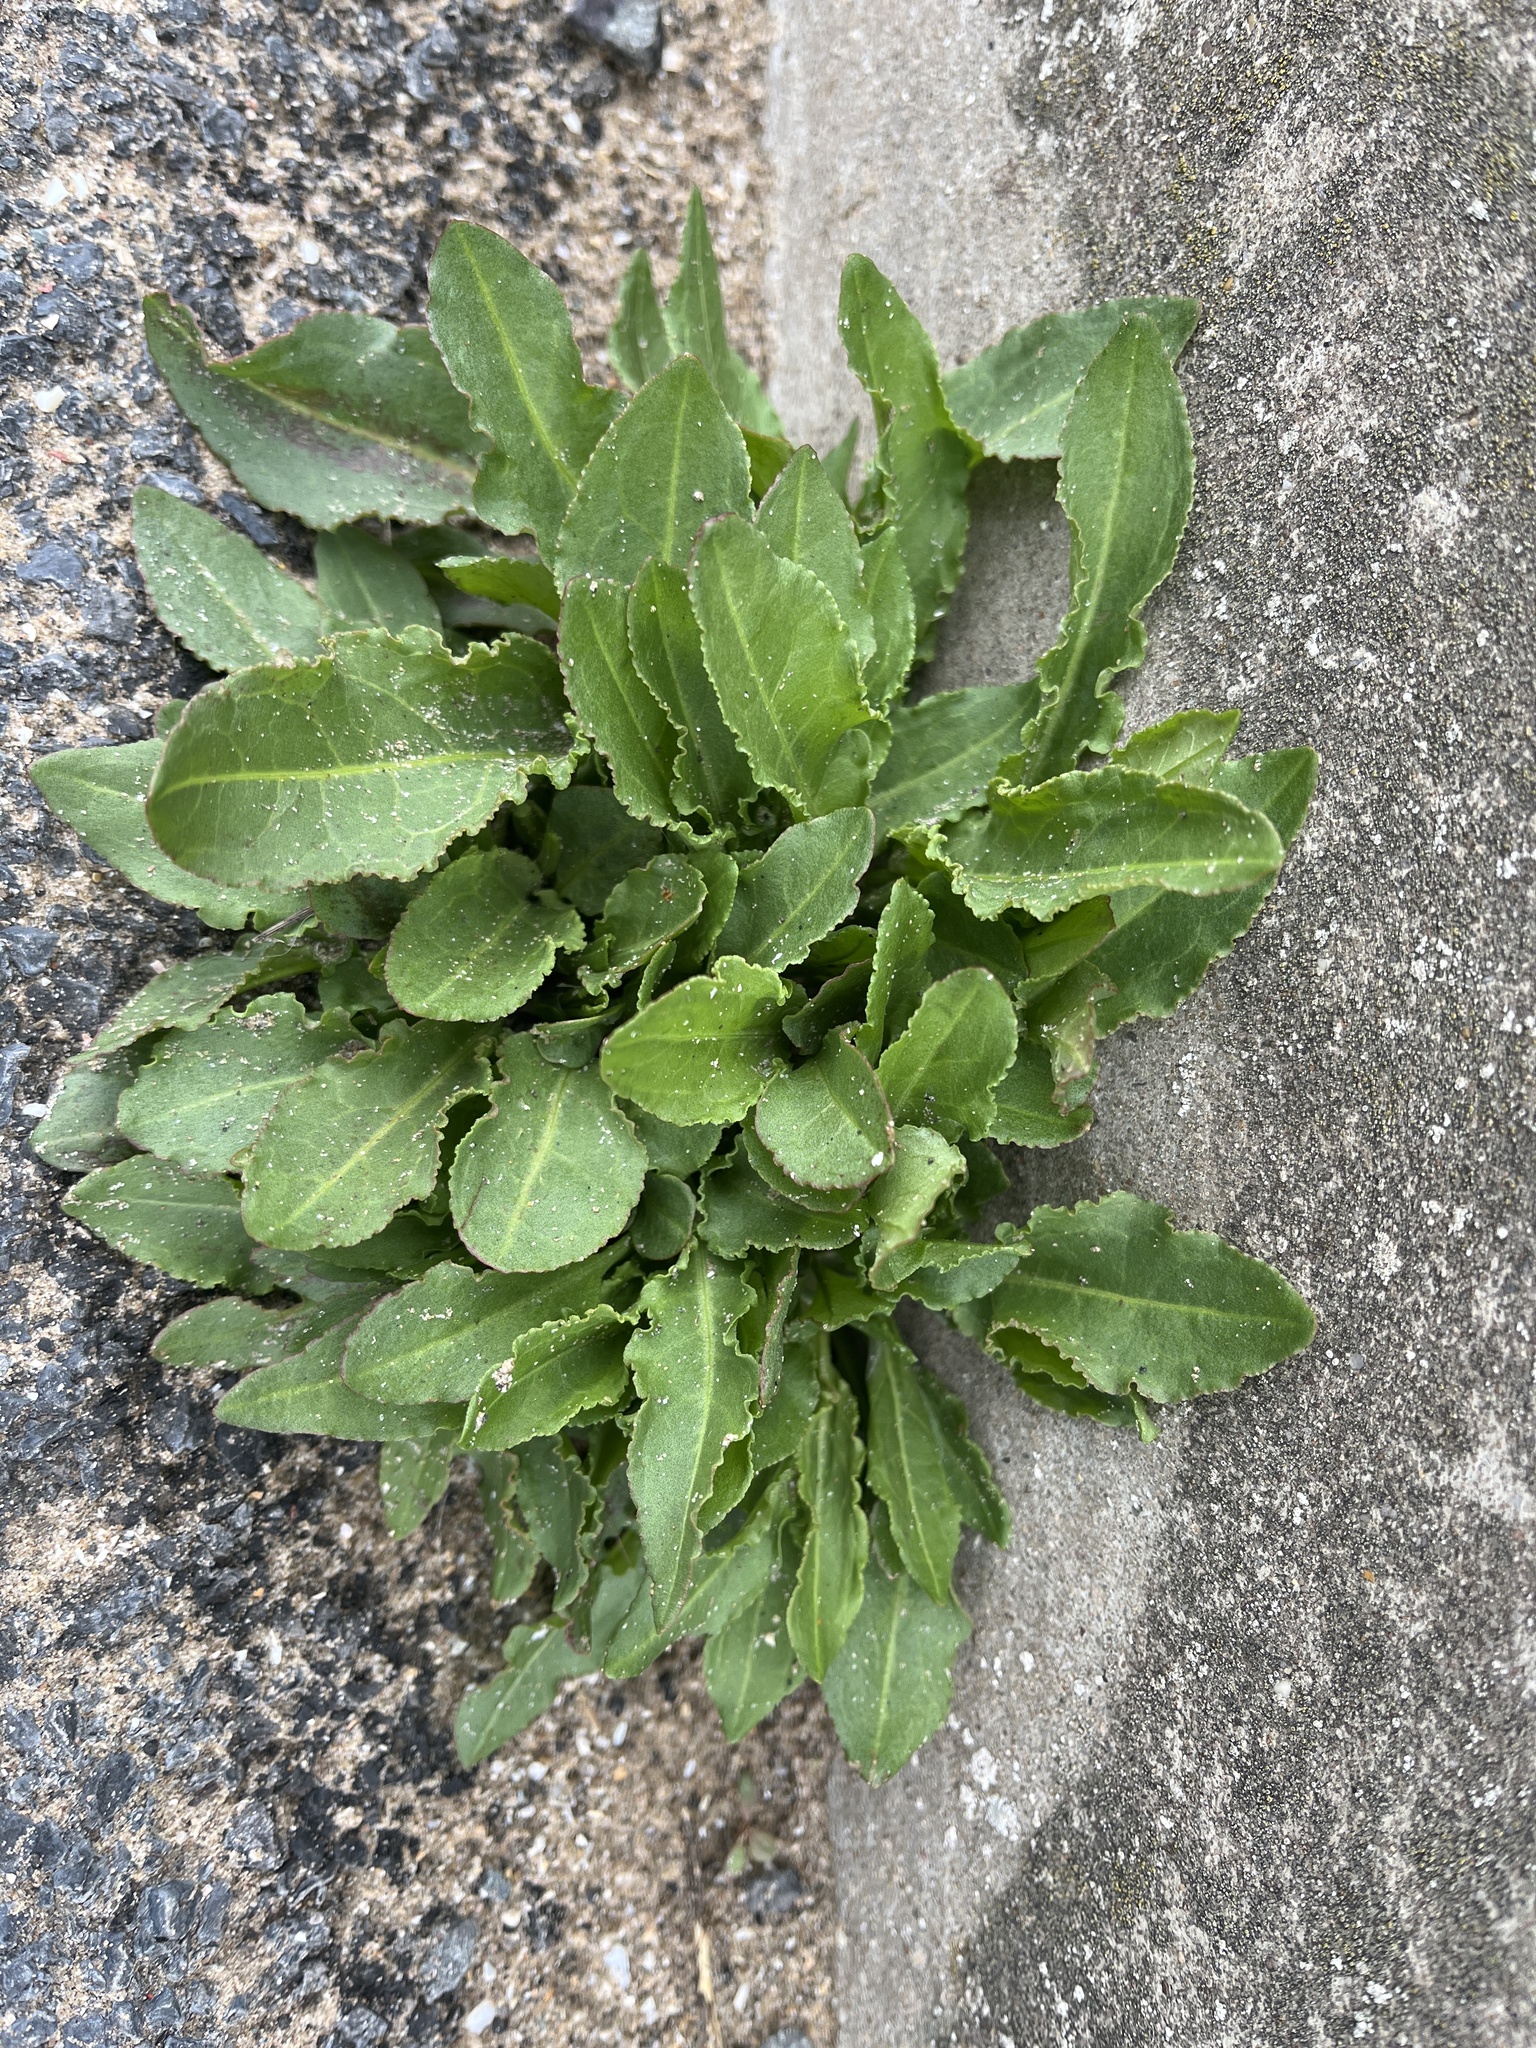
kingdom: Plantae
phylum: Tracheophyta
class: Magnoliopsida
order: Caryophyllales
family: Amaranthaceae
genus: Beta
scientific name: Beta vulgaris
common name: Beet
